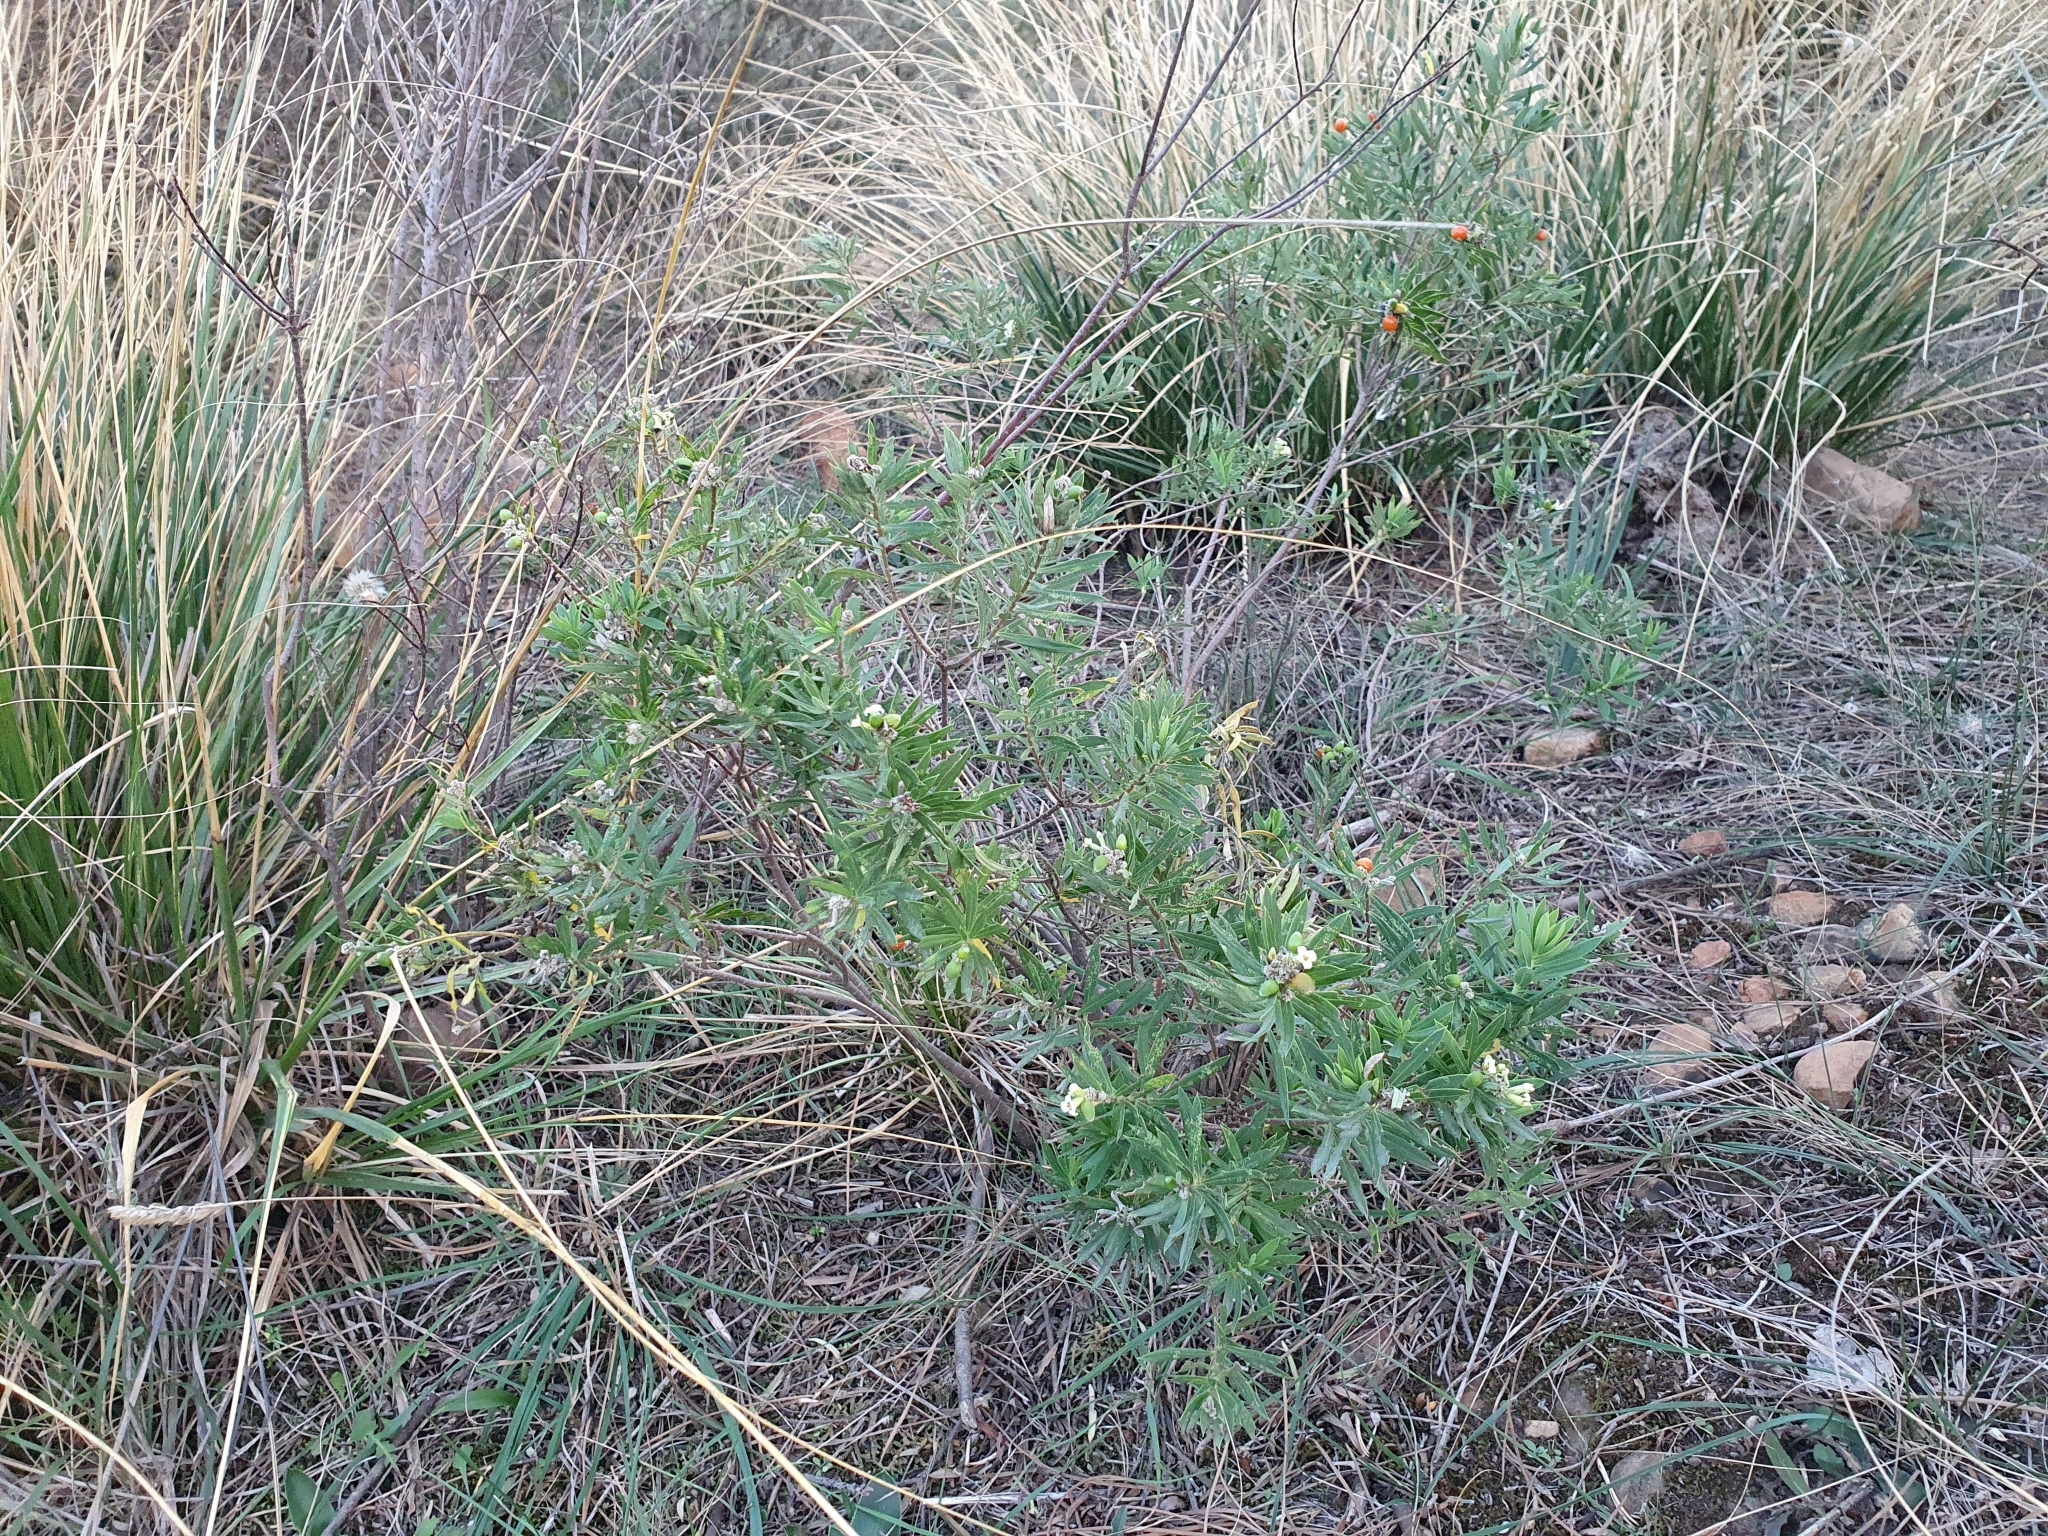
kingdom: Plantae
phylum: Tracheophyta
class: Magnoliopsida
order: Malvales
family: Thymelaeaceae
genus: Daphne
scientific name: Daphne gnidium
